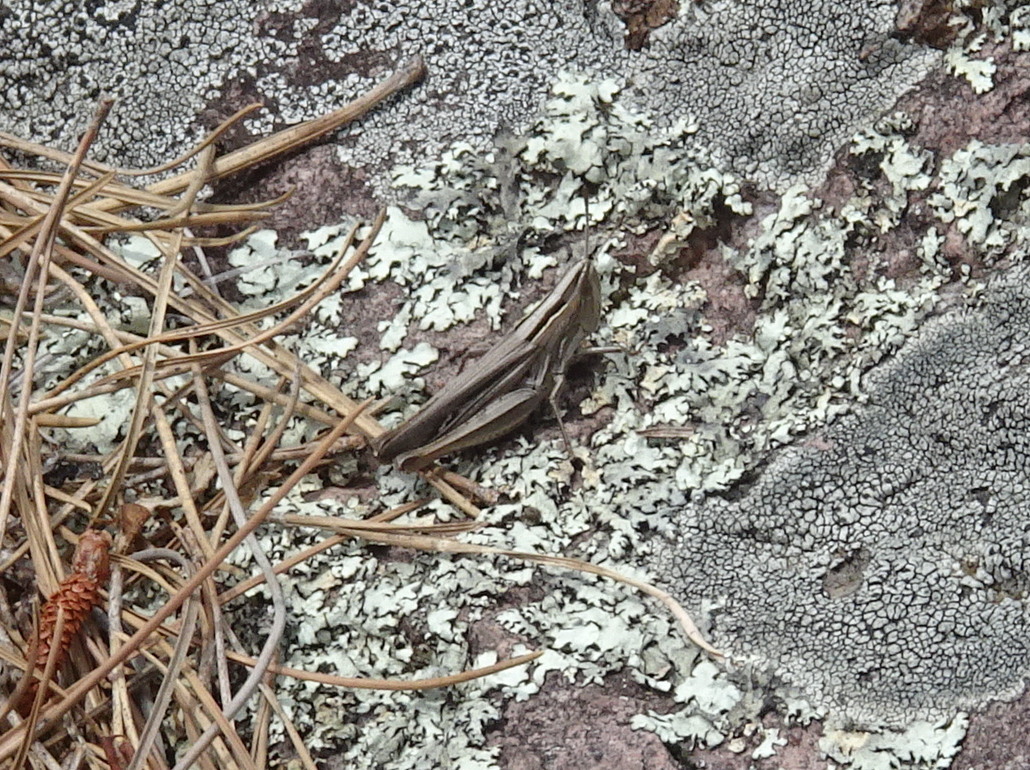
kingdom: Animalia
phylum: Arthropoda
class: Insecta
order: Orthoptera
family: Acrididae
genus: Eritettix
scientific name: Eritettix simplex
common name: Velvet-striped grasshopper
